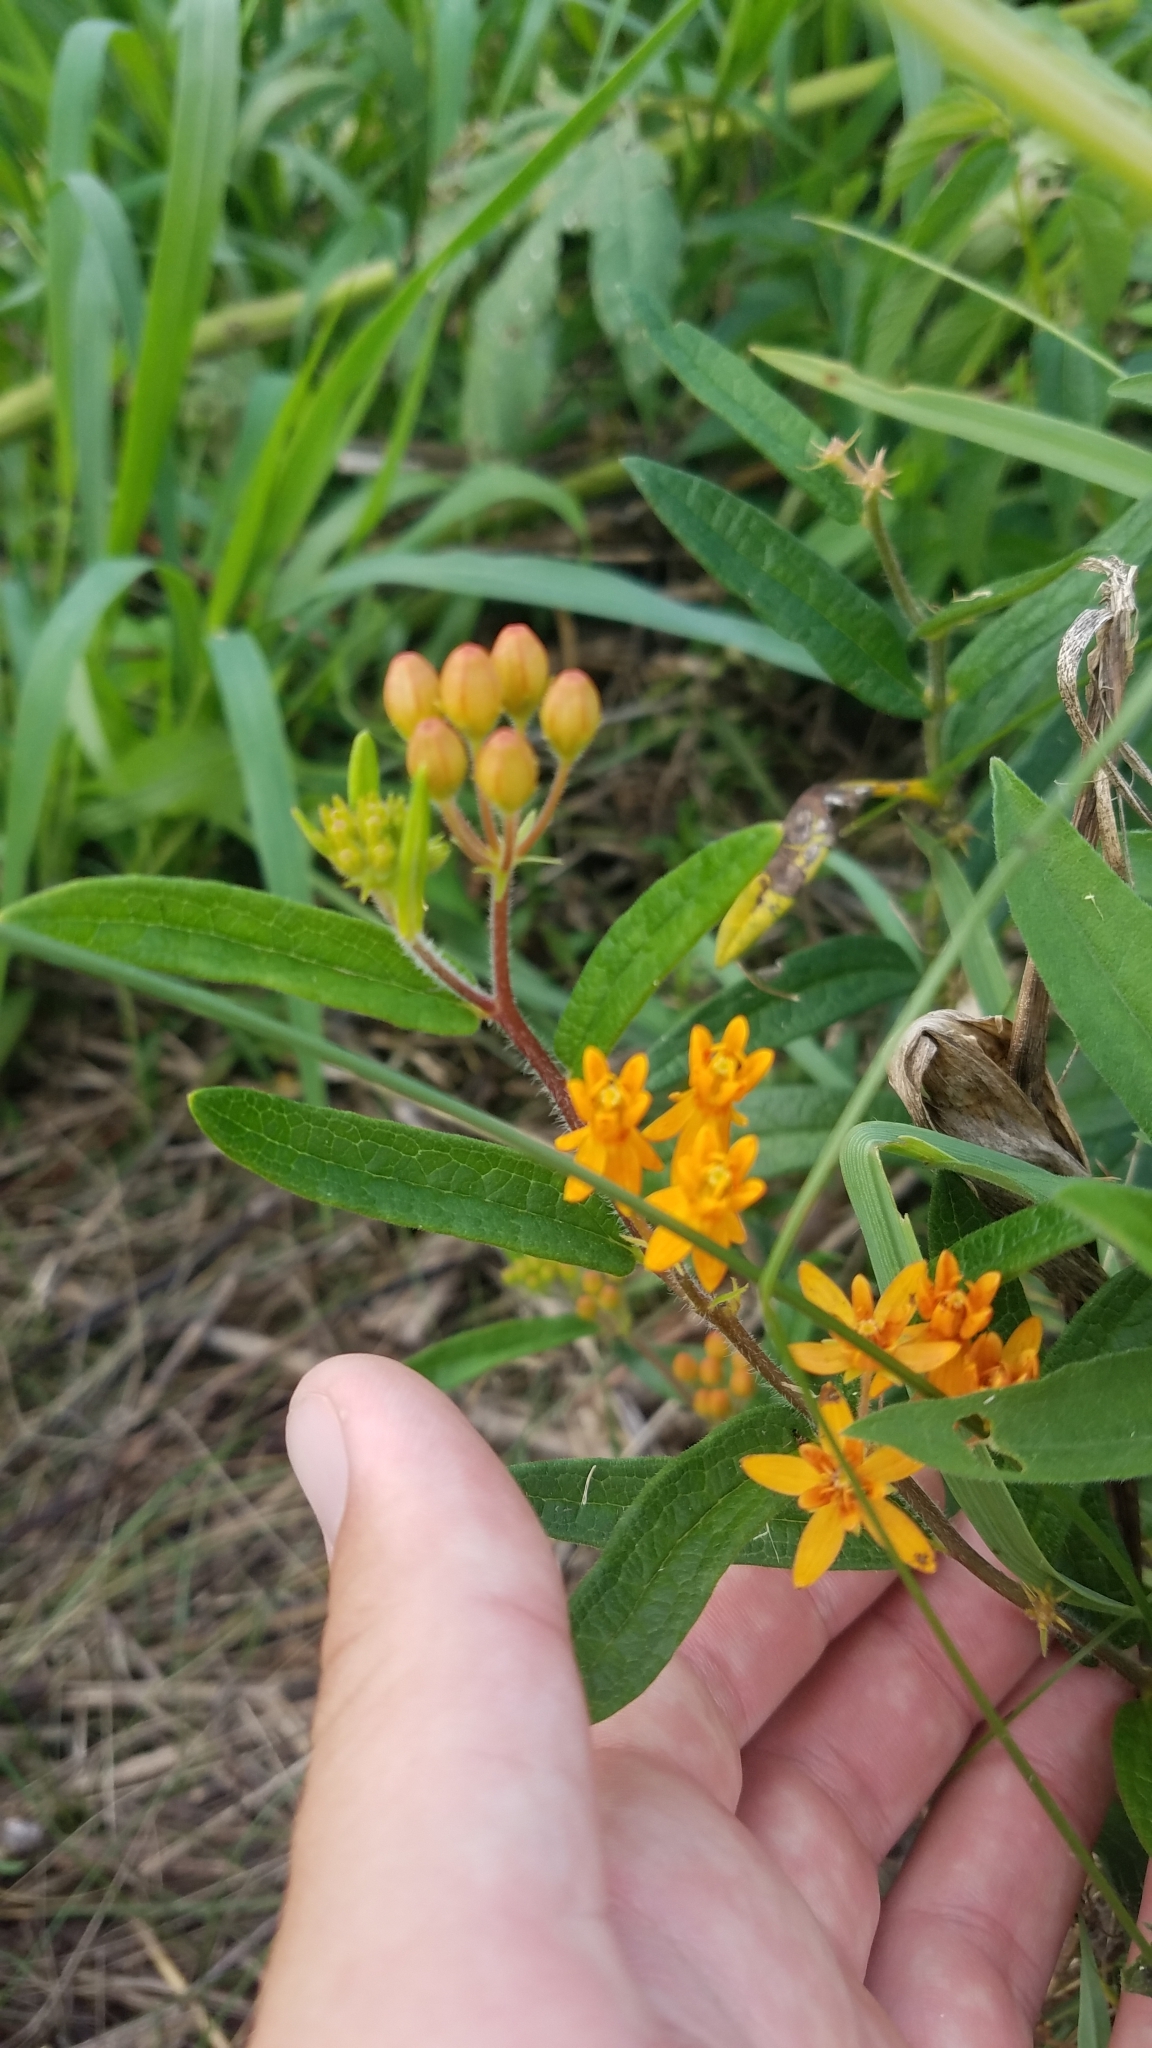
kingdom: Plantae
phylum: Tracheophyta
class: Magnoliopsida
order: Gentianales
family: Apocynaceae
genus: Asclepias
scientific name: Asclepias tuberosa
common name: Butterfly milkweed
